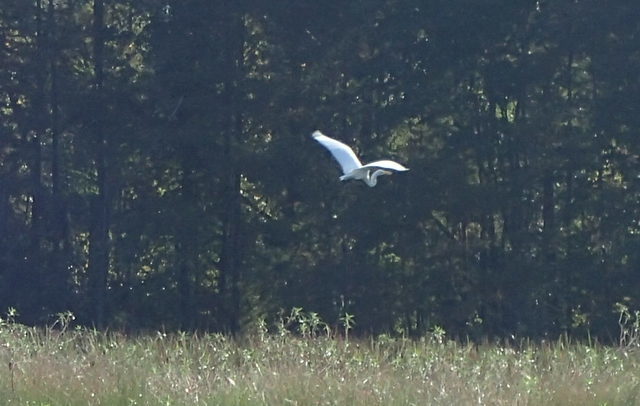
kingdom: Animalia
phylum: Chordata
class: Aves
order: Pelecaniformes
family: Ardeidae
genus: Ardea
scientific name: Ardea alba
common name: Great egret
